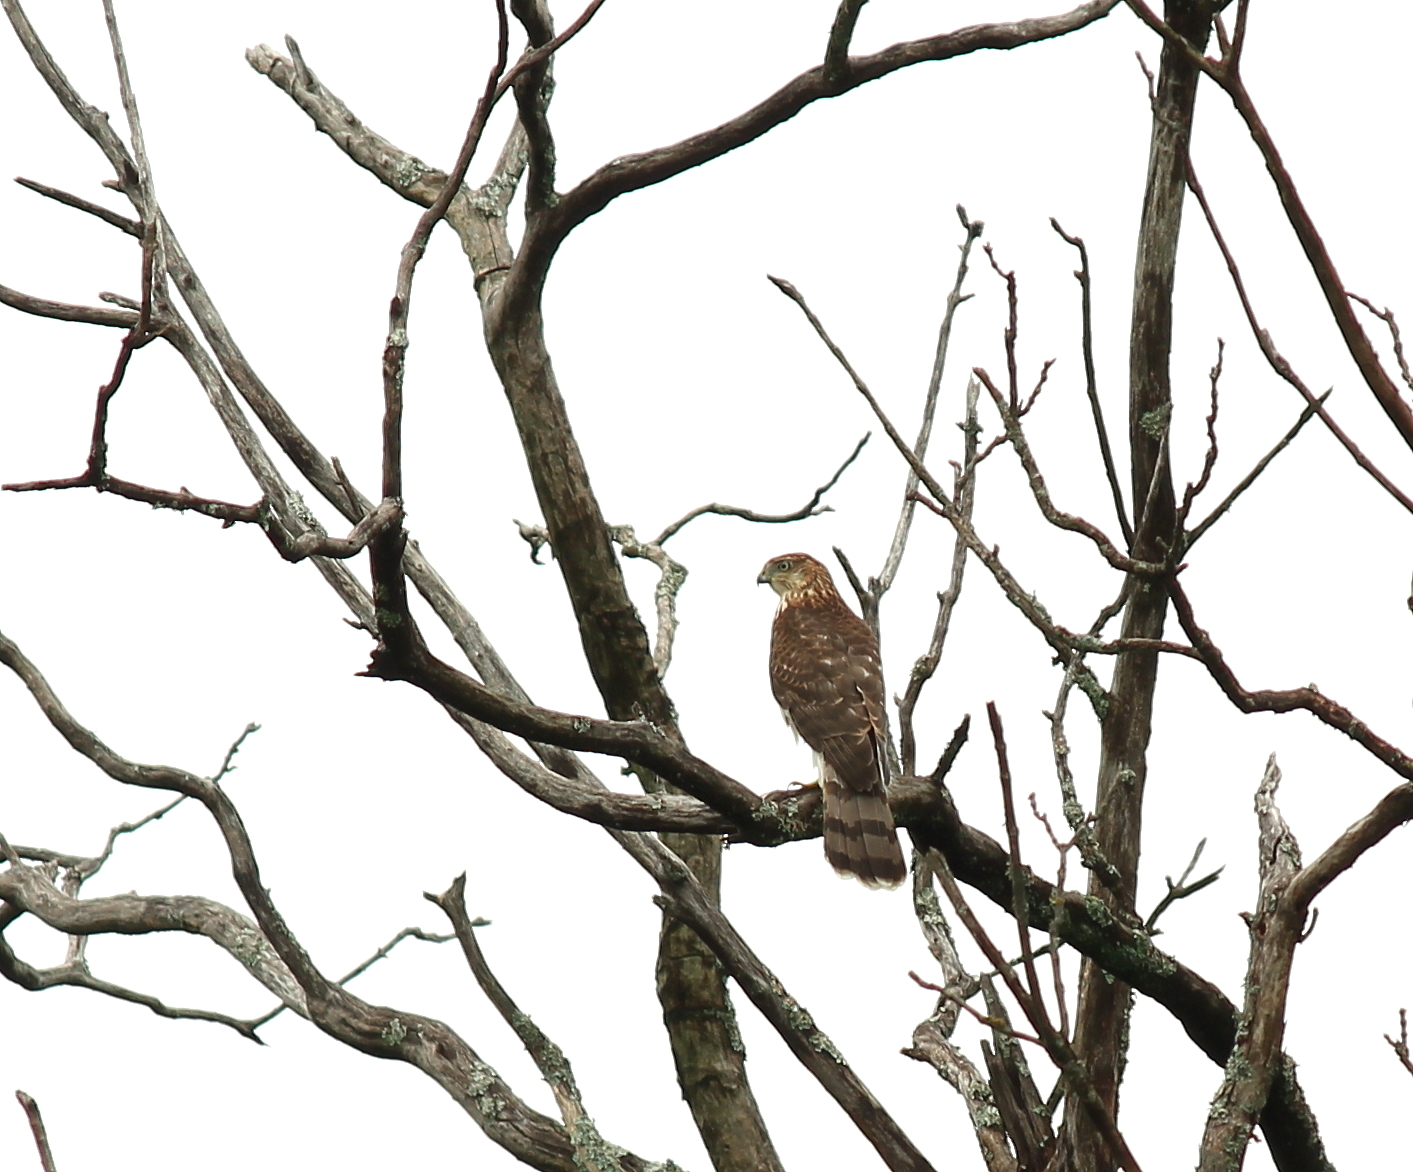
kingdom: Animalia
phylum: Chordata
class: Aves
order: Accipitriformes
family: Accipitridae
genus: Accipiter
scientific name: Accipiter cooperii
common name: Cooper's hawk
